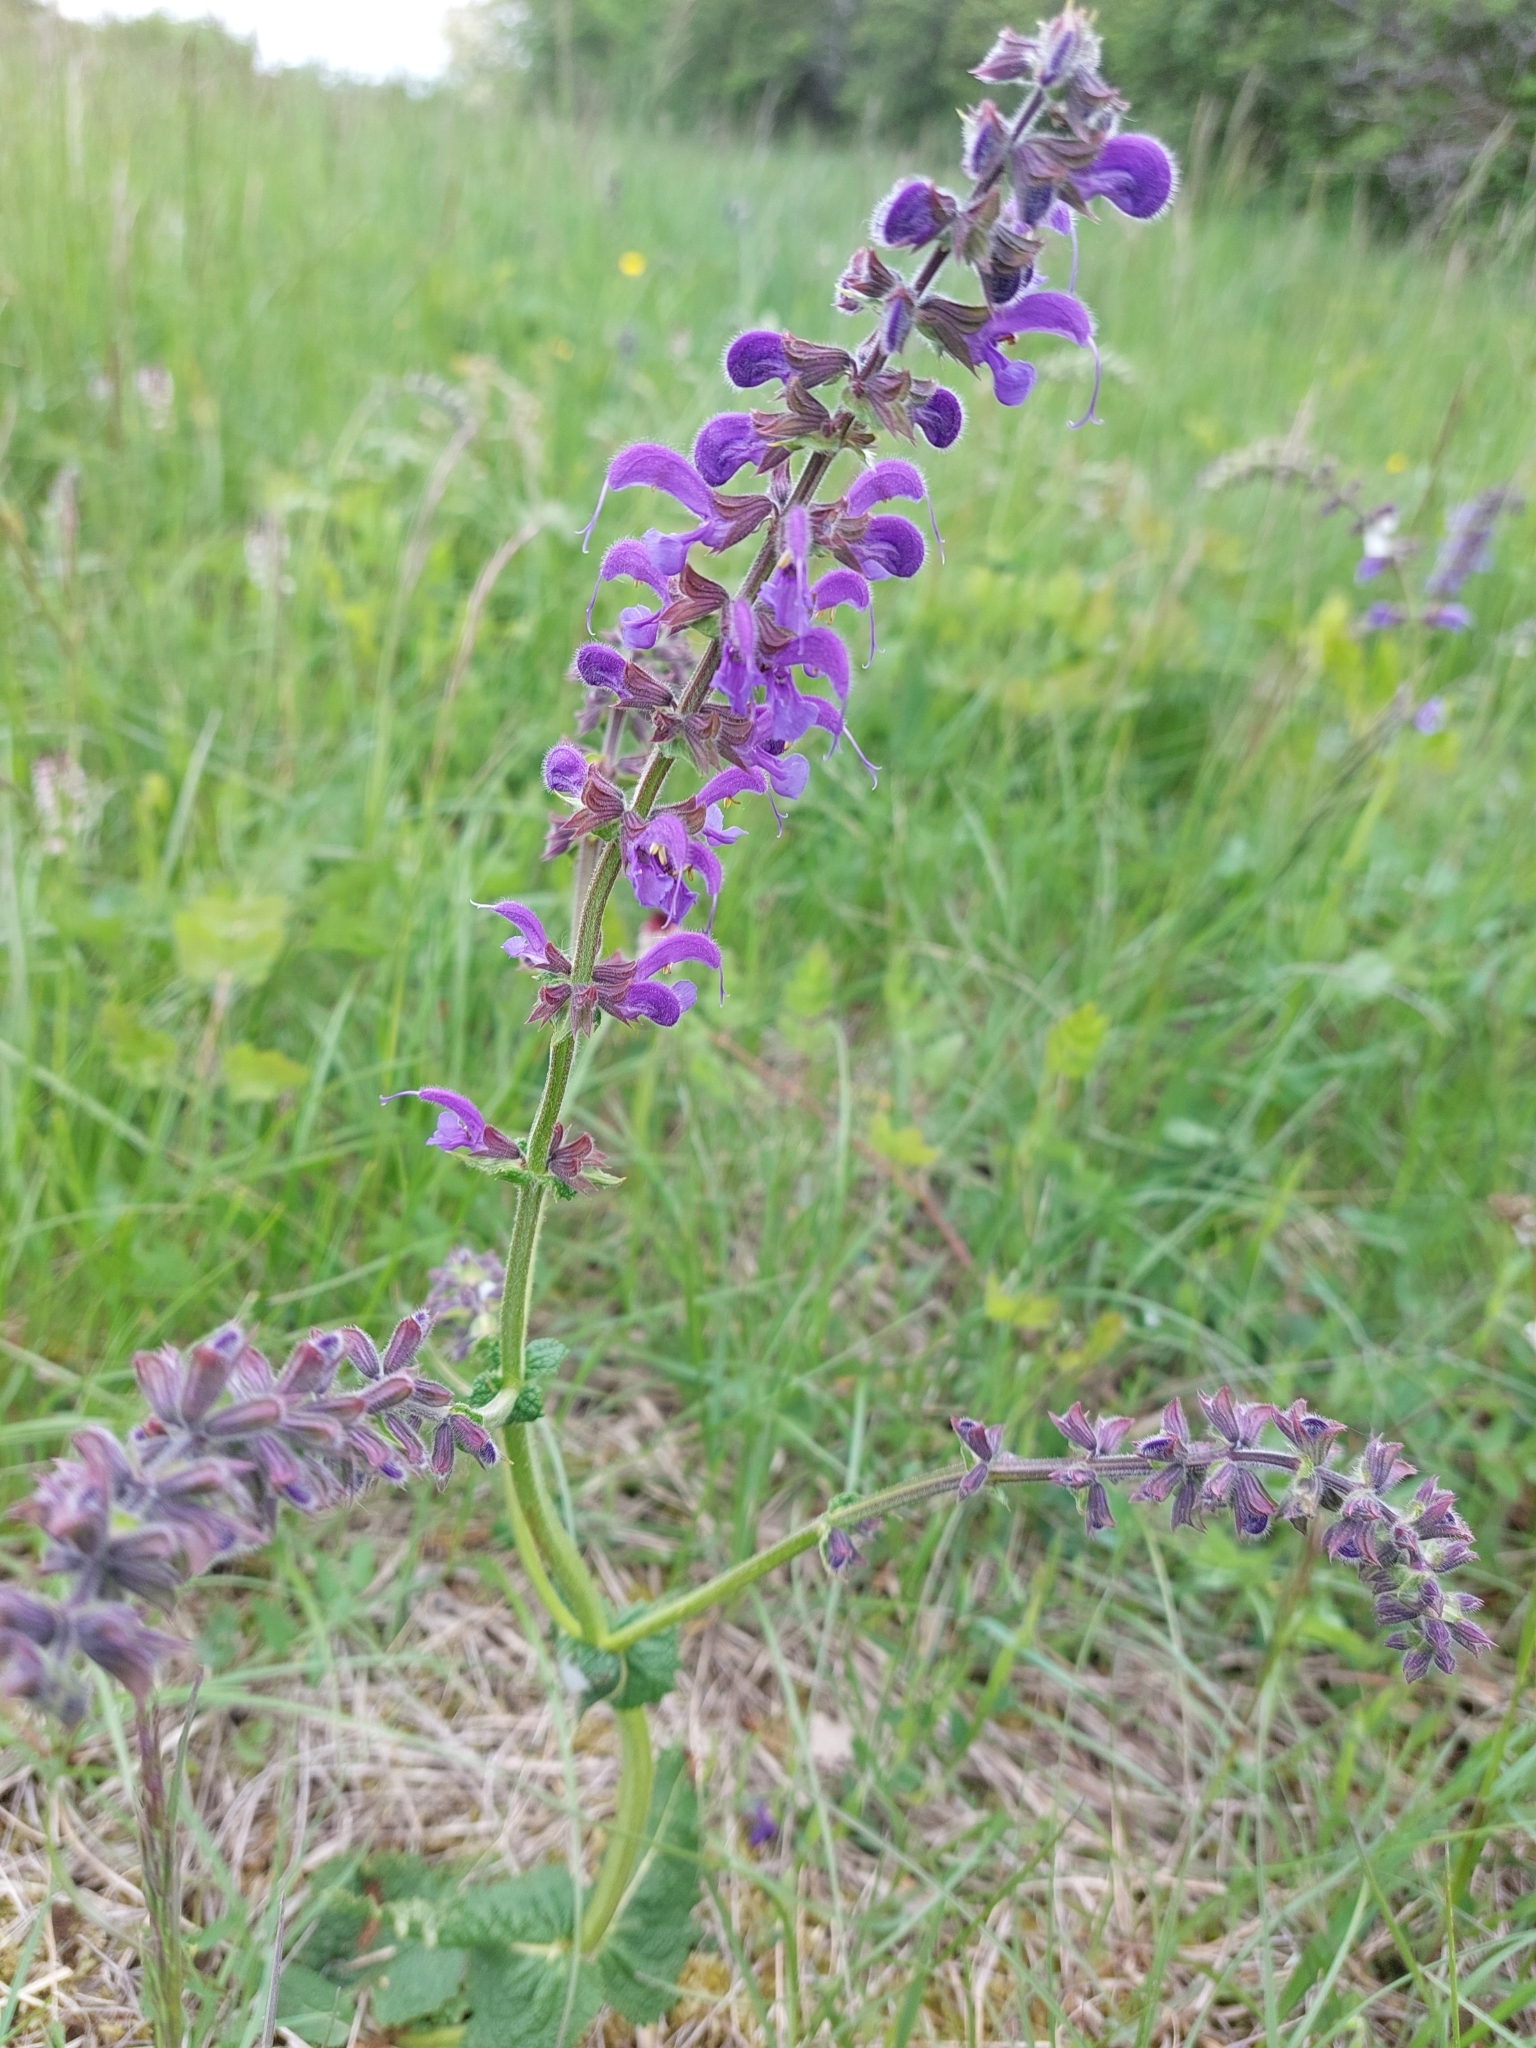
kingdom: Plantae
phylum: Tracheophyta
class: Magnoliopsida
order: Lamiales
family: Lamiaceae
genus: Salvia
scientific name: Salvia pratensis
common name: Meadow sage
